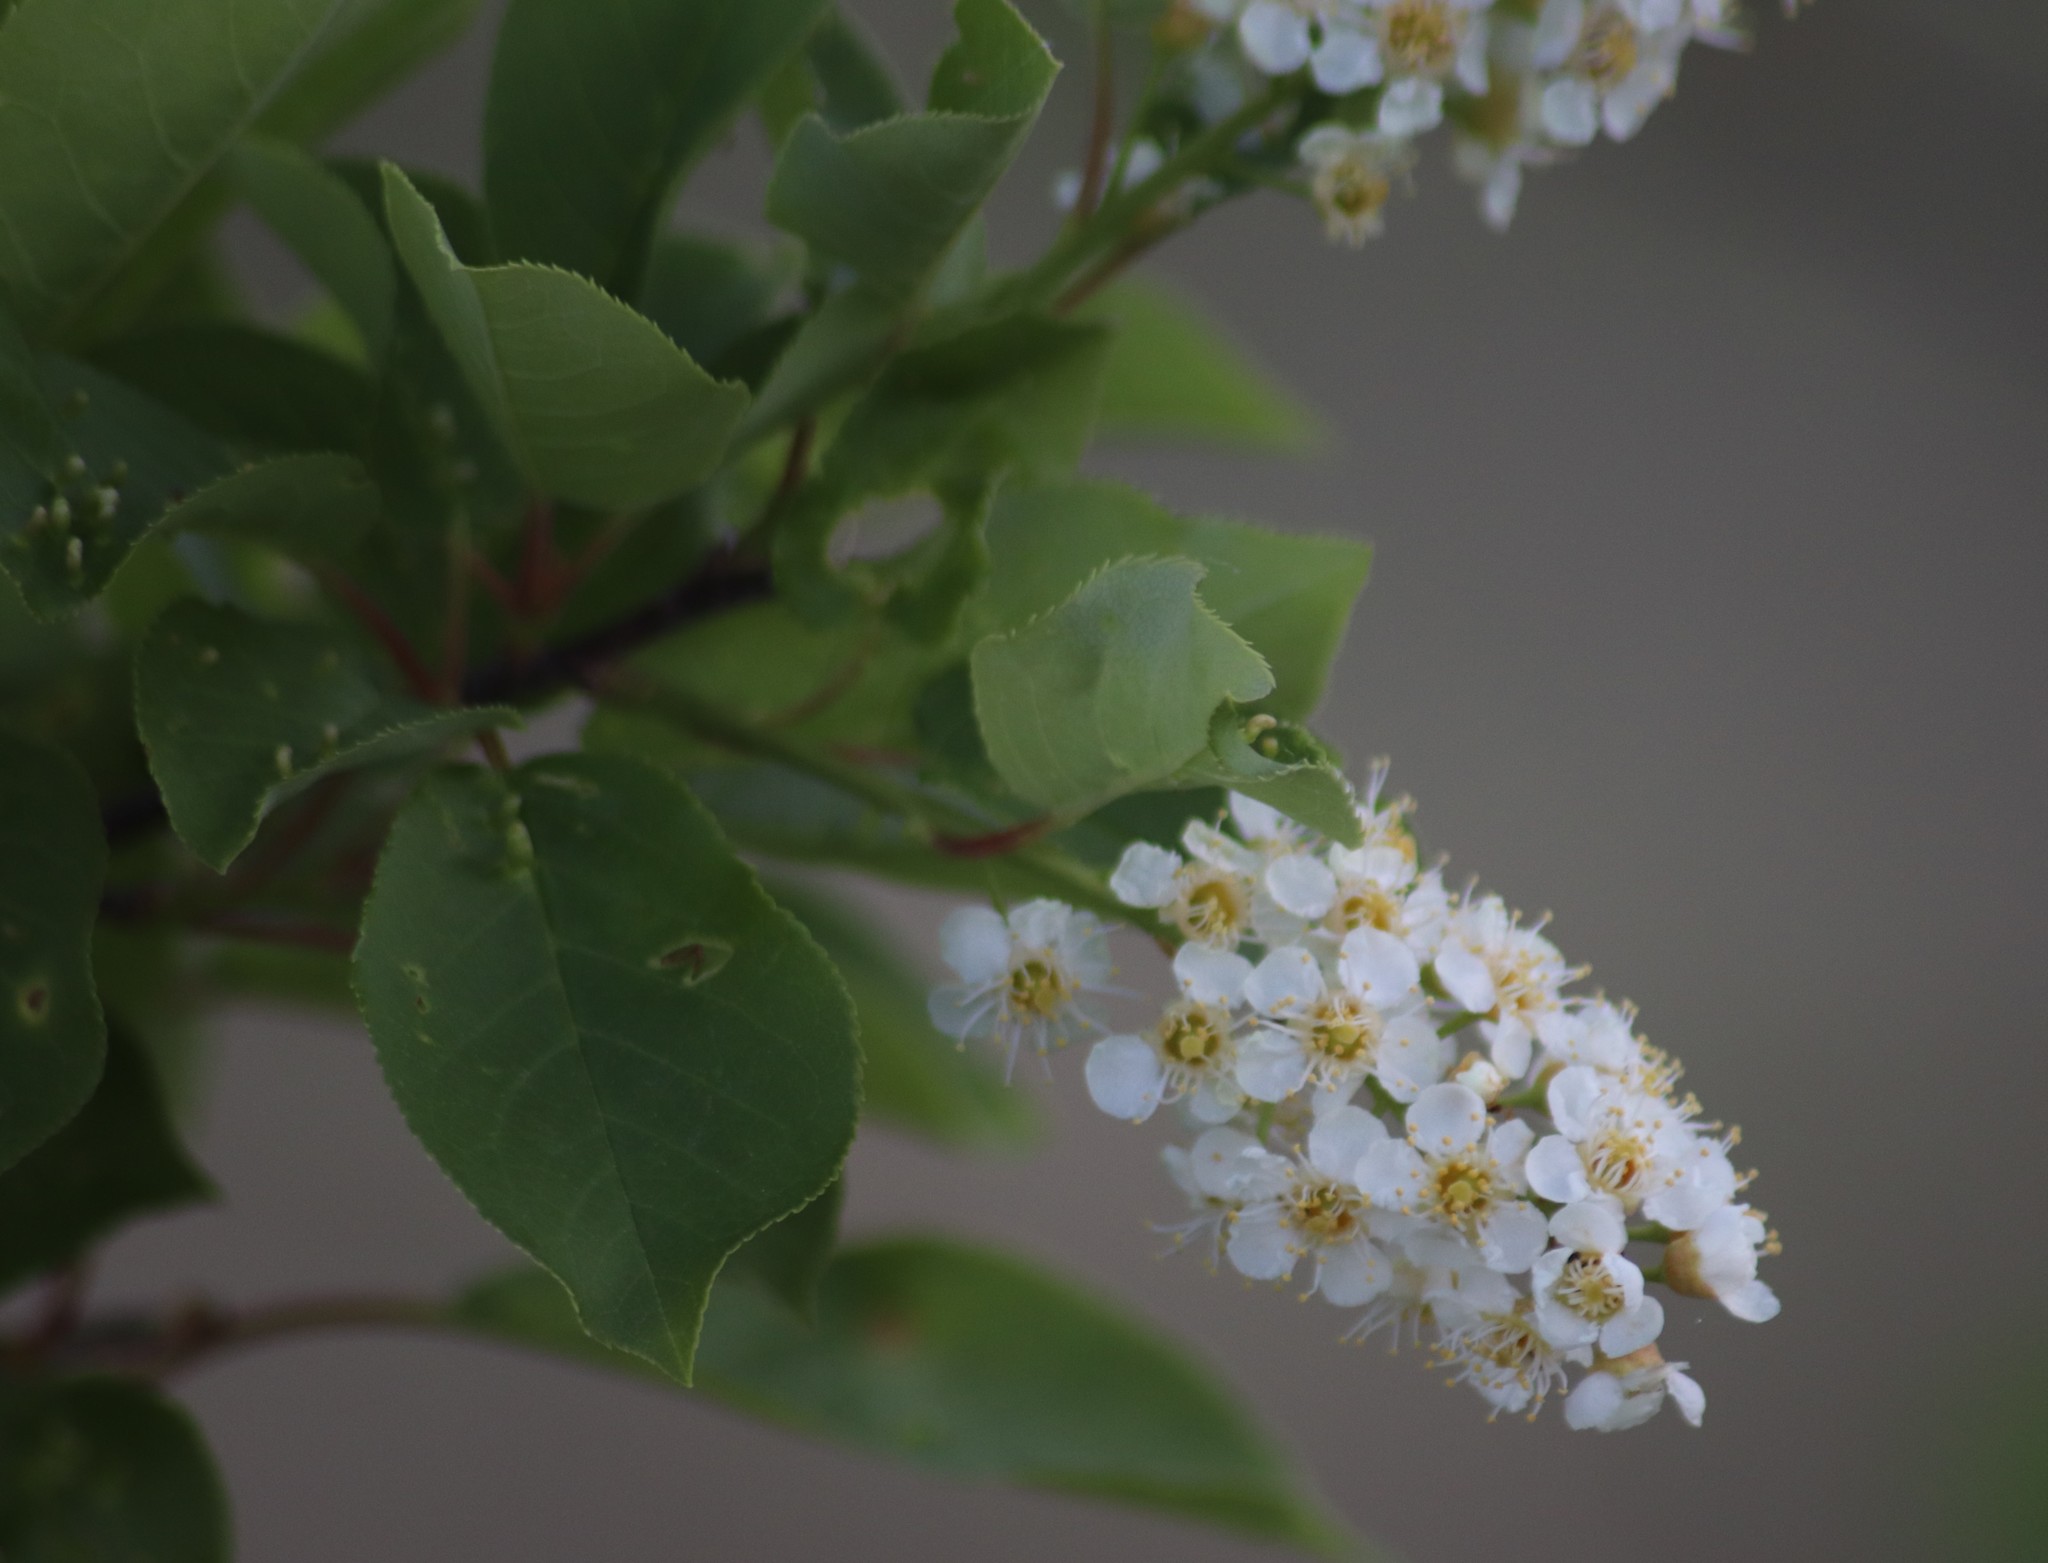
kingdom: Plantae
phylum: Tracheophyta
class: Magnoliopsida
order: Rosales
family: Rosaceae
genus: Prunus
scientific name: Prunus virginiana
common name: Chokecherry
